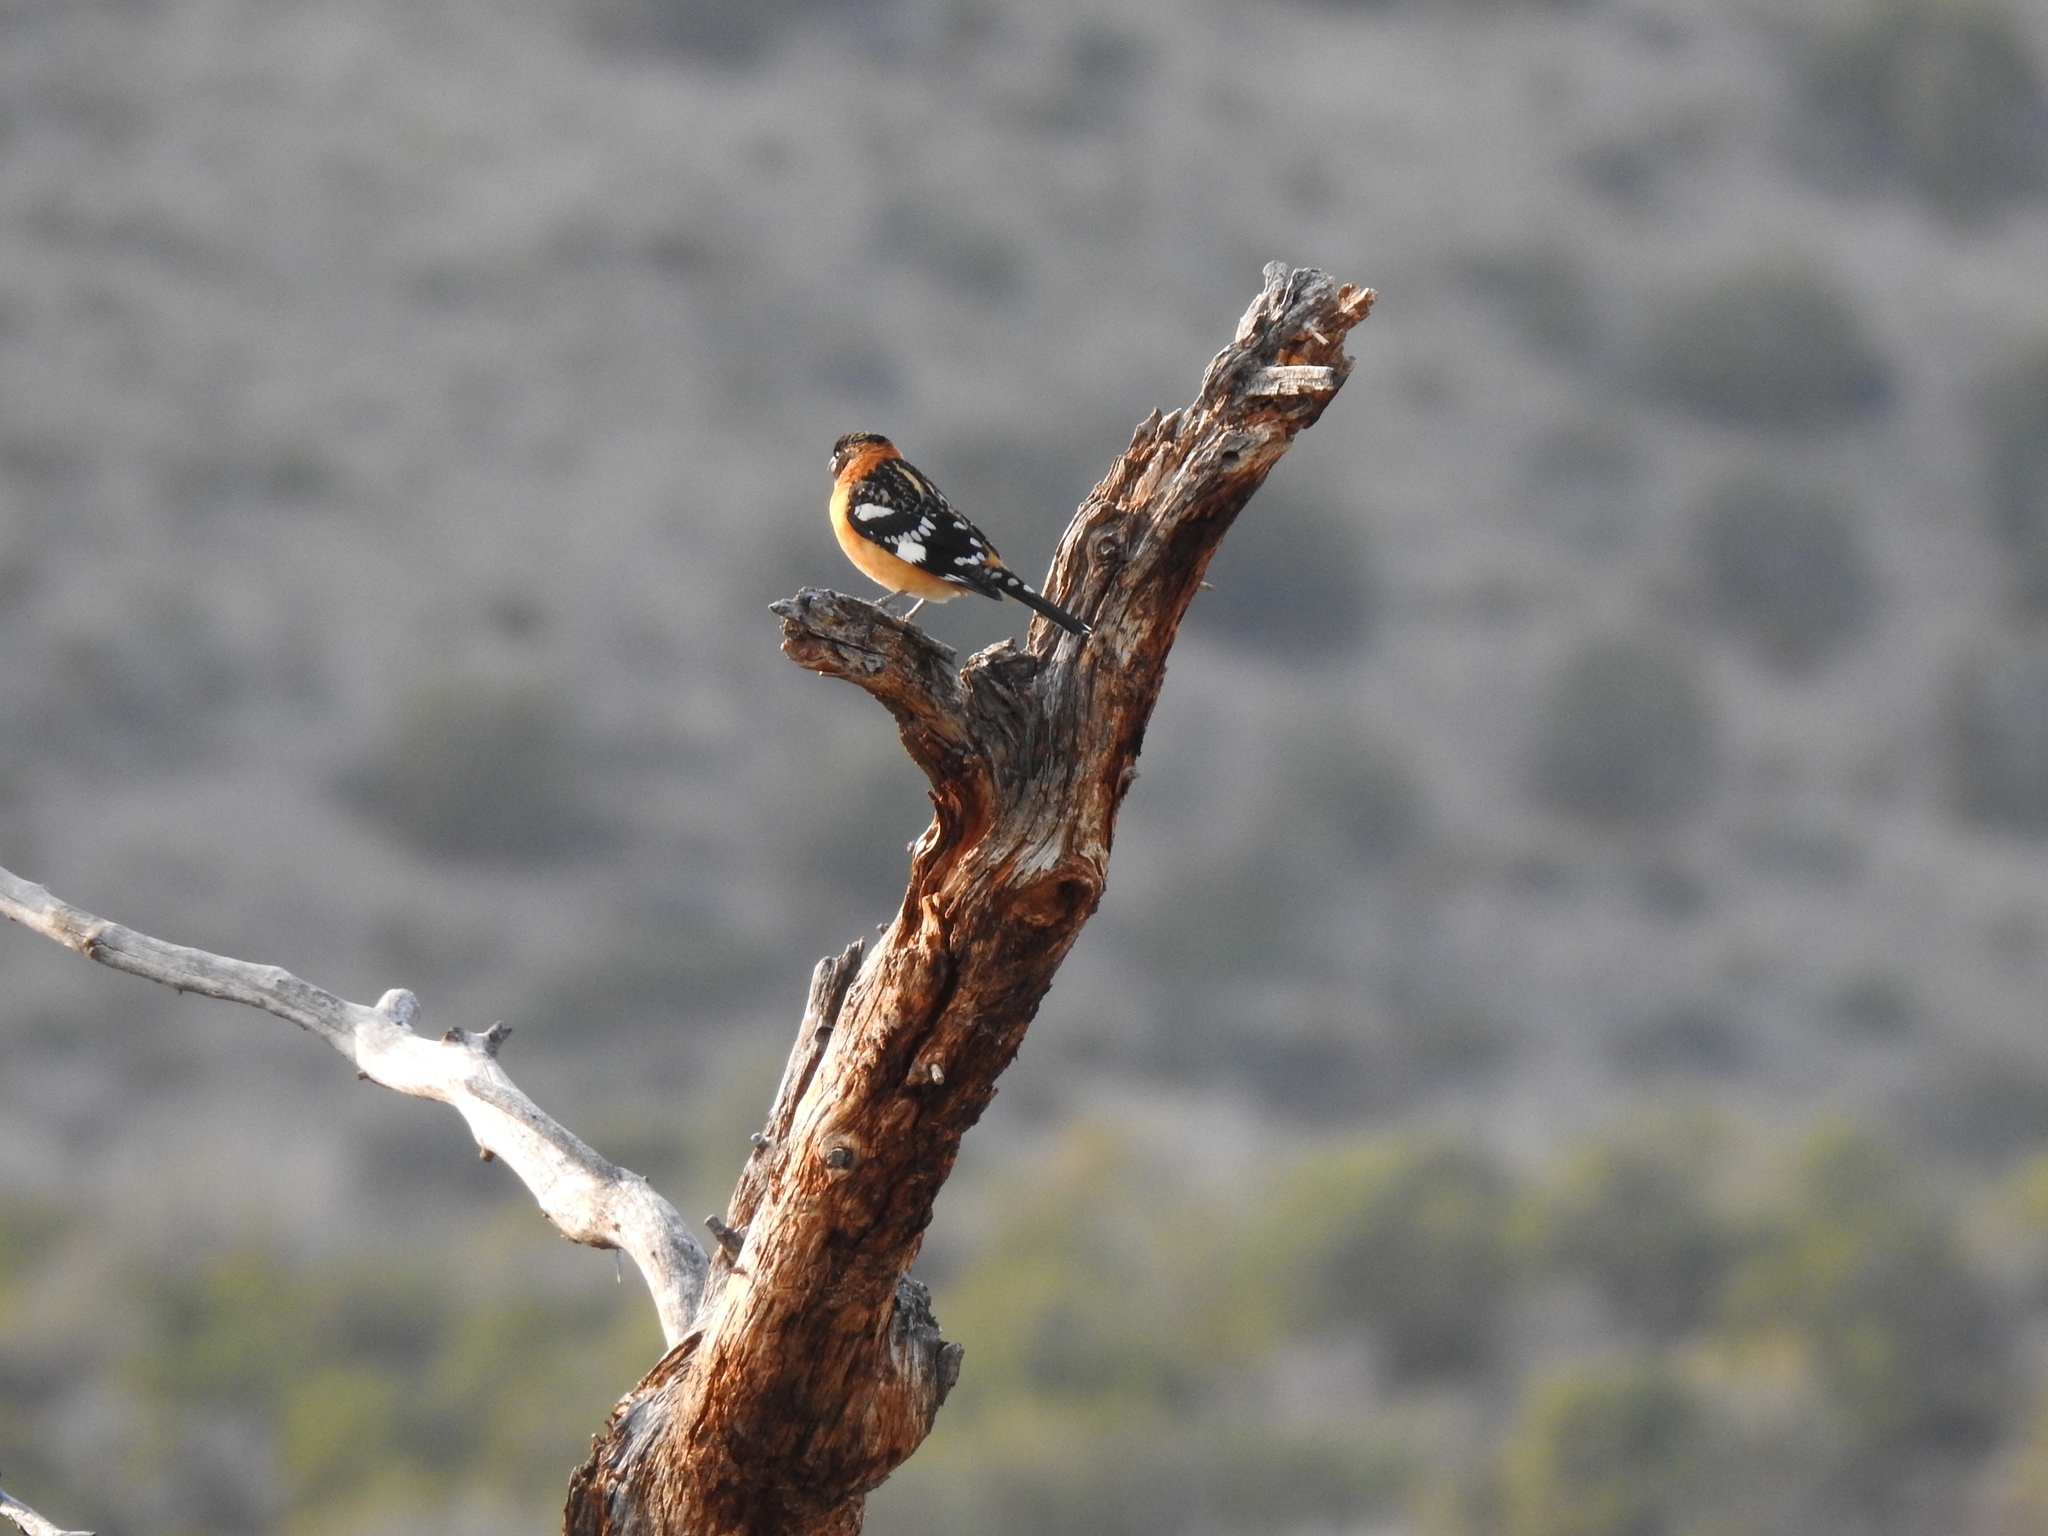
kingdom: Animalia
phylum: Chordata
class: Aves
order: Passeriformes
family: Cardinalidae
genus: Pheucticus
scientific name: Pheucticus melanocephalus
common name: Black-headed grosbeak
